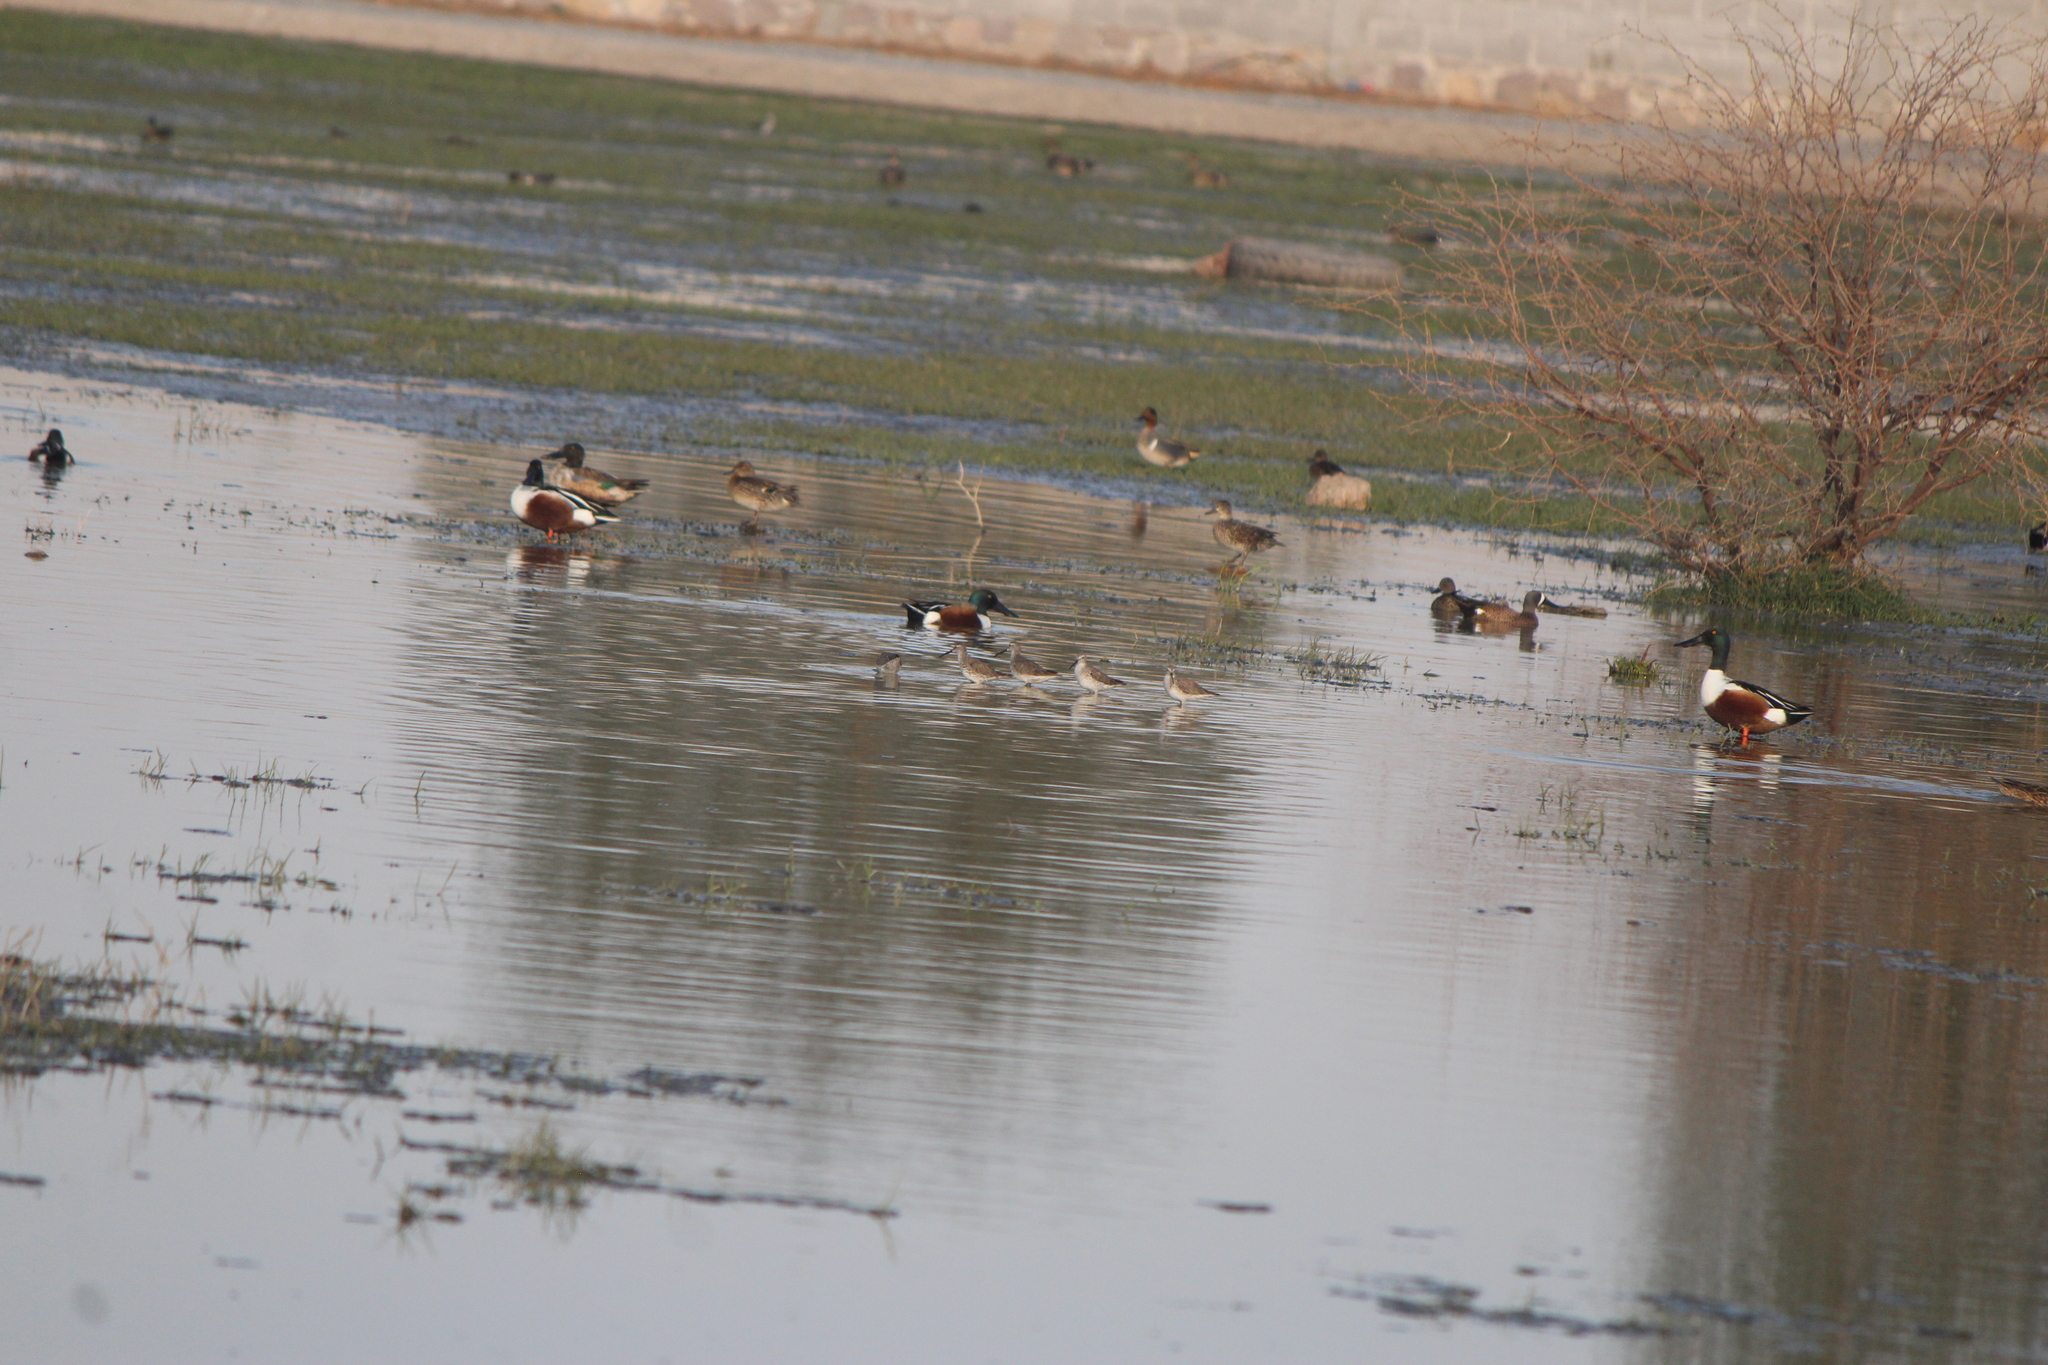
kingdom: Animalia
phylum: Chordata
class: Aves
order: Charadriiformes
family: Scolopacidae
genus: Calidris
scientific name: Calidris himantopus
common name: Stilt sandpiper
